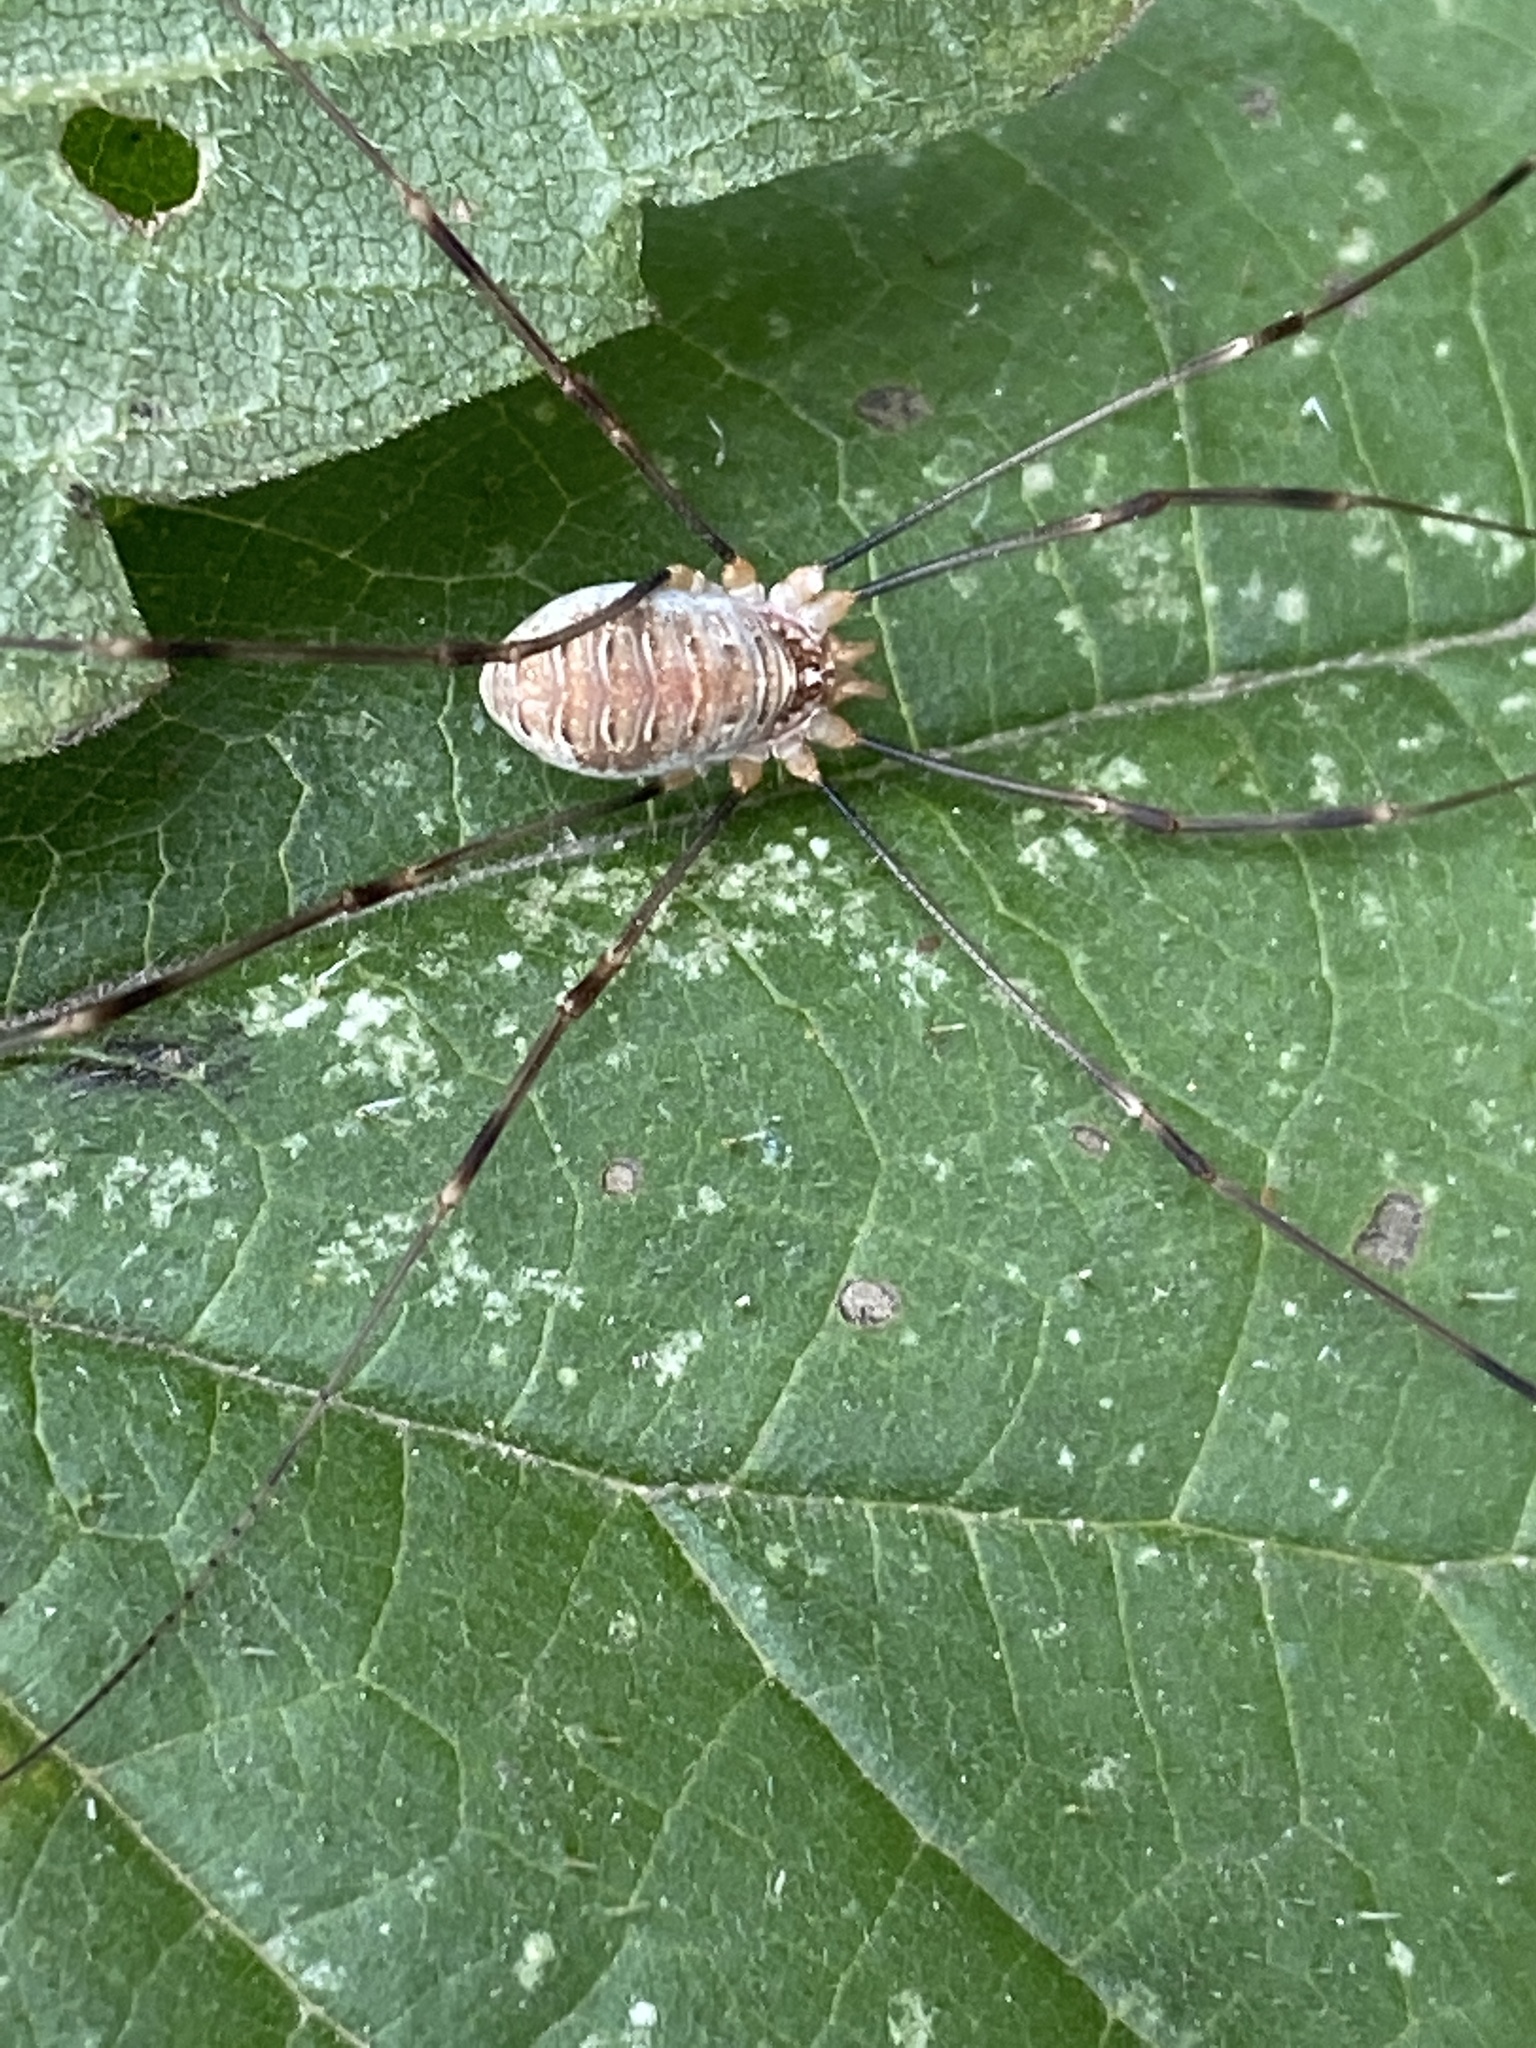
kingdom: Animalia
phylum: Arthropoda
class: Arachnida
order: Opiliones
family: Phalangiidae
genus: Opilio
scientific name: Opilio canestrinii
